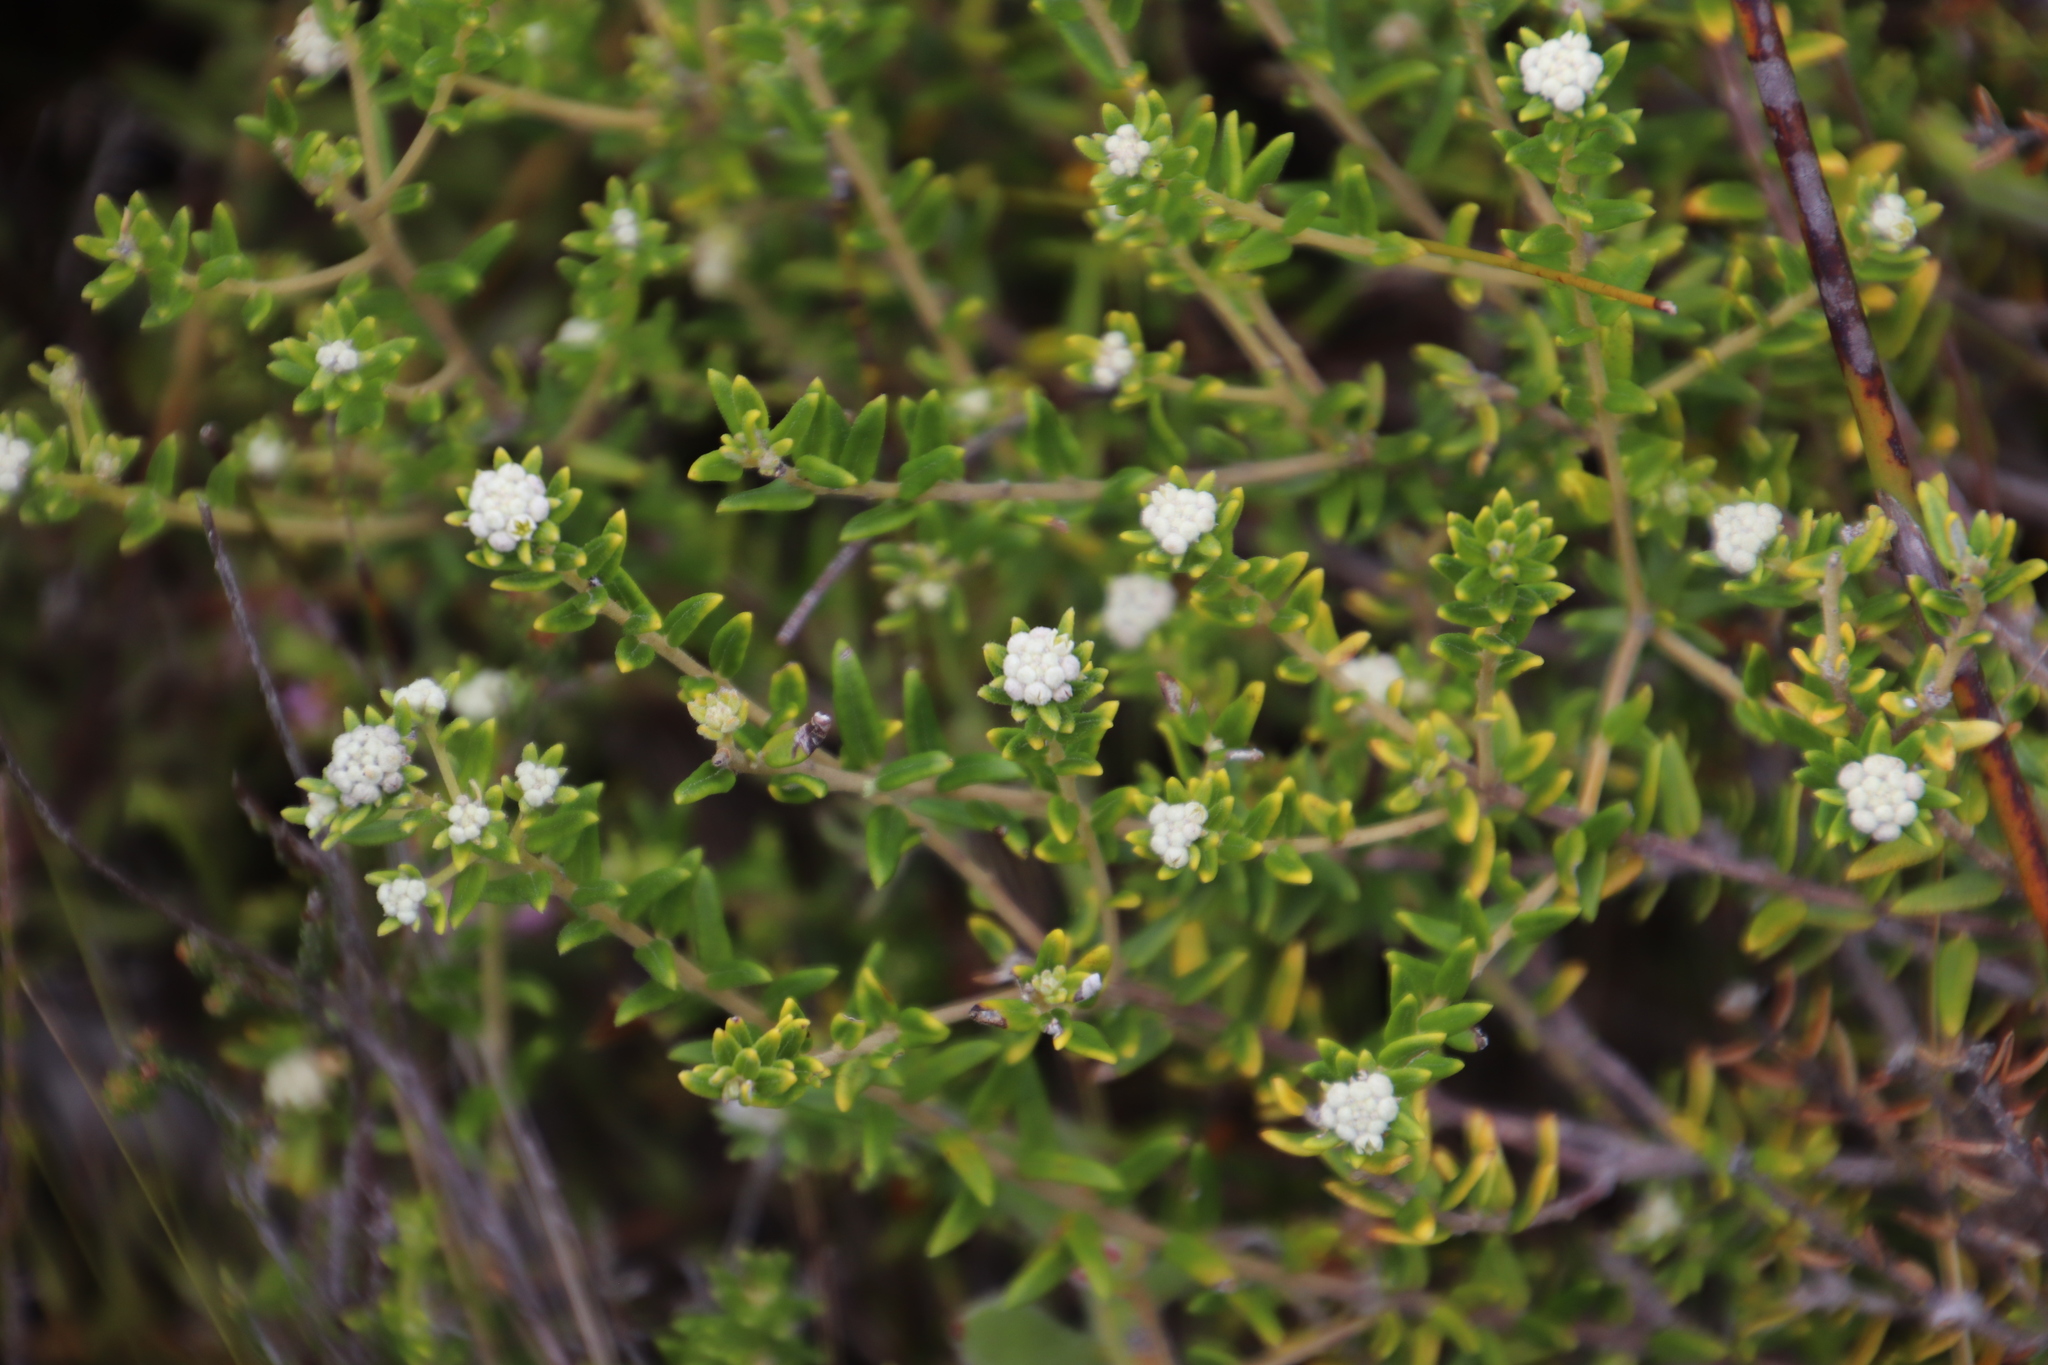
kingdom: Plantae
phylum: Tracheophyta
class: Magnoliopsida
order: Rosales
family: Rhamnaceae
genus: Phylica
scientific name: Phylica lasiocarpa
